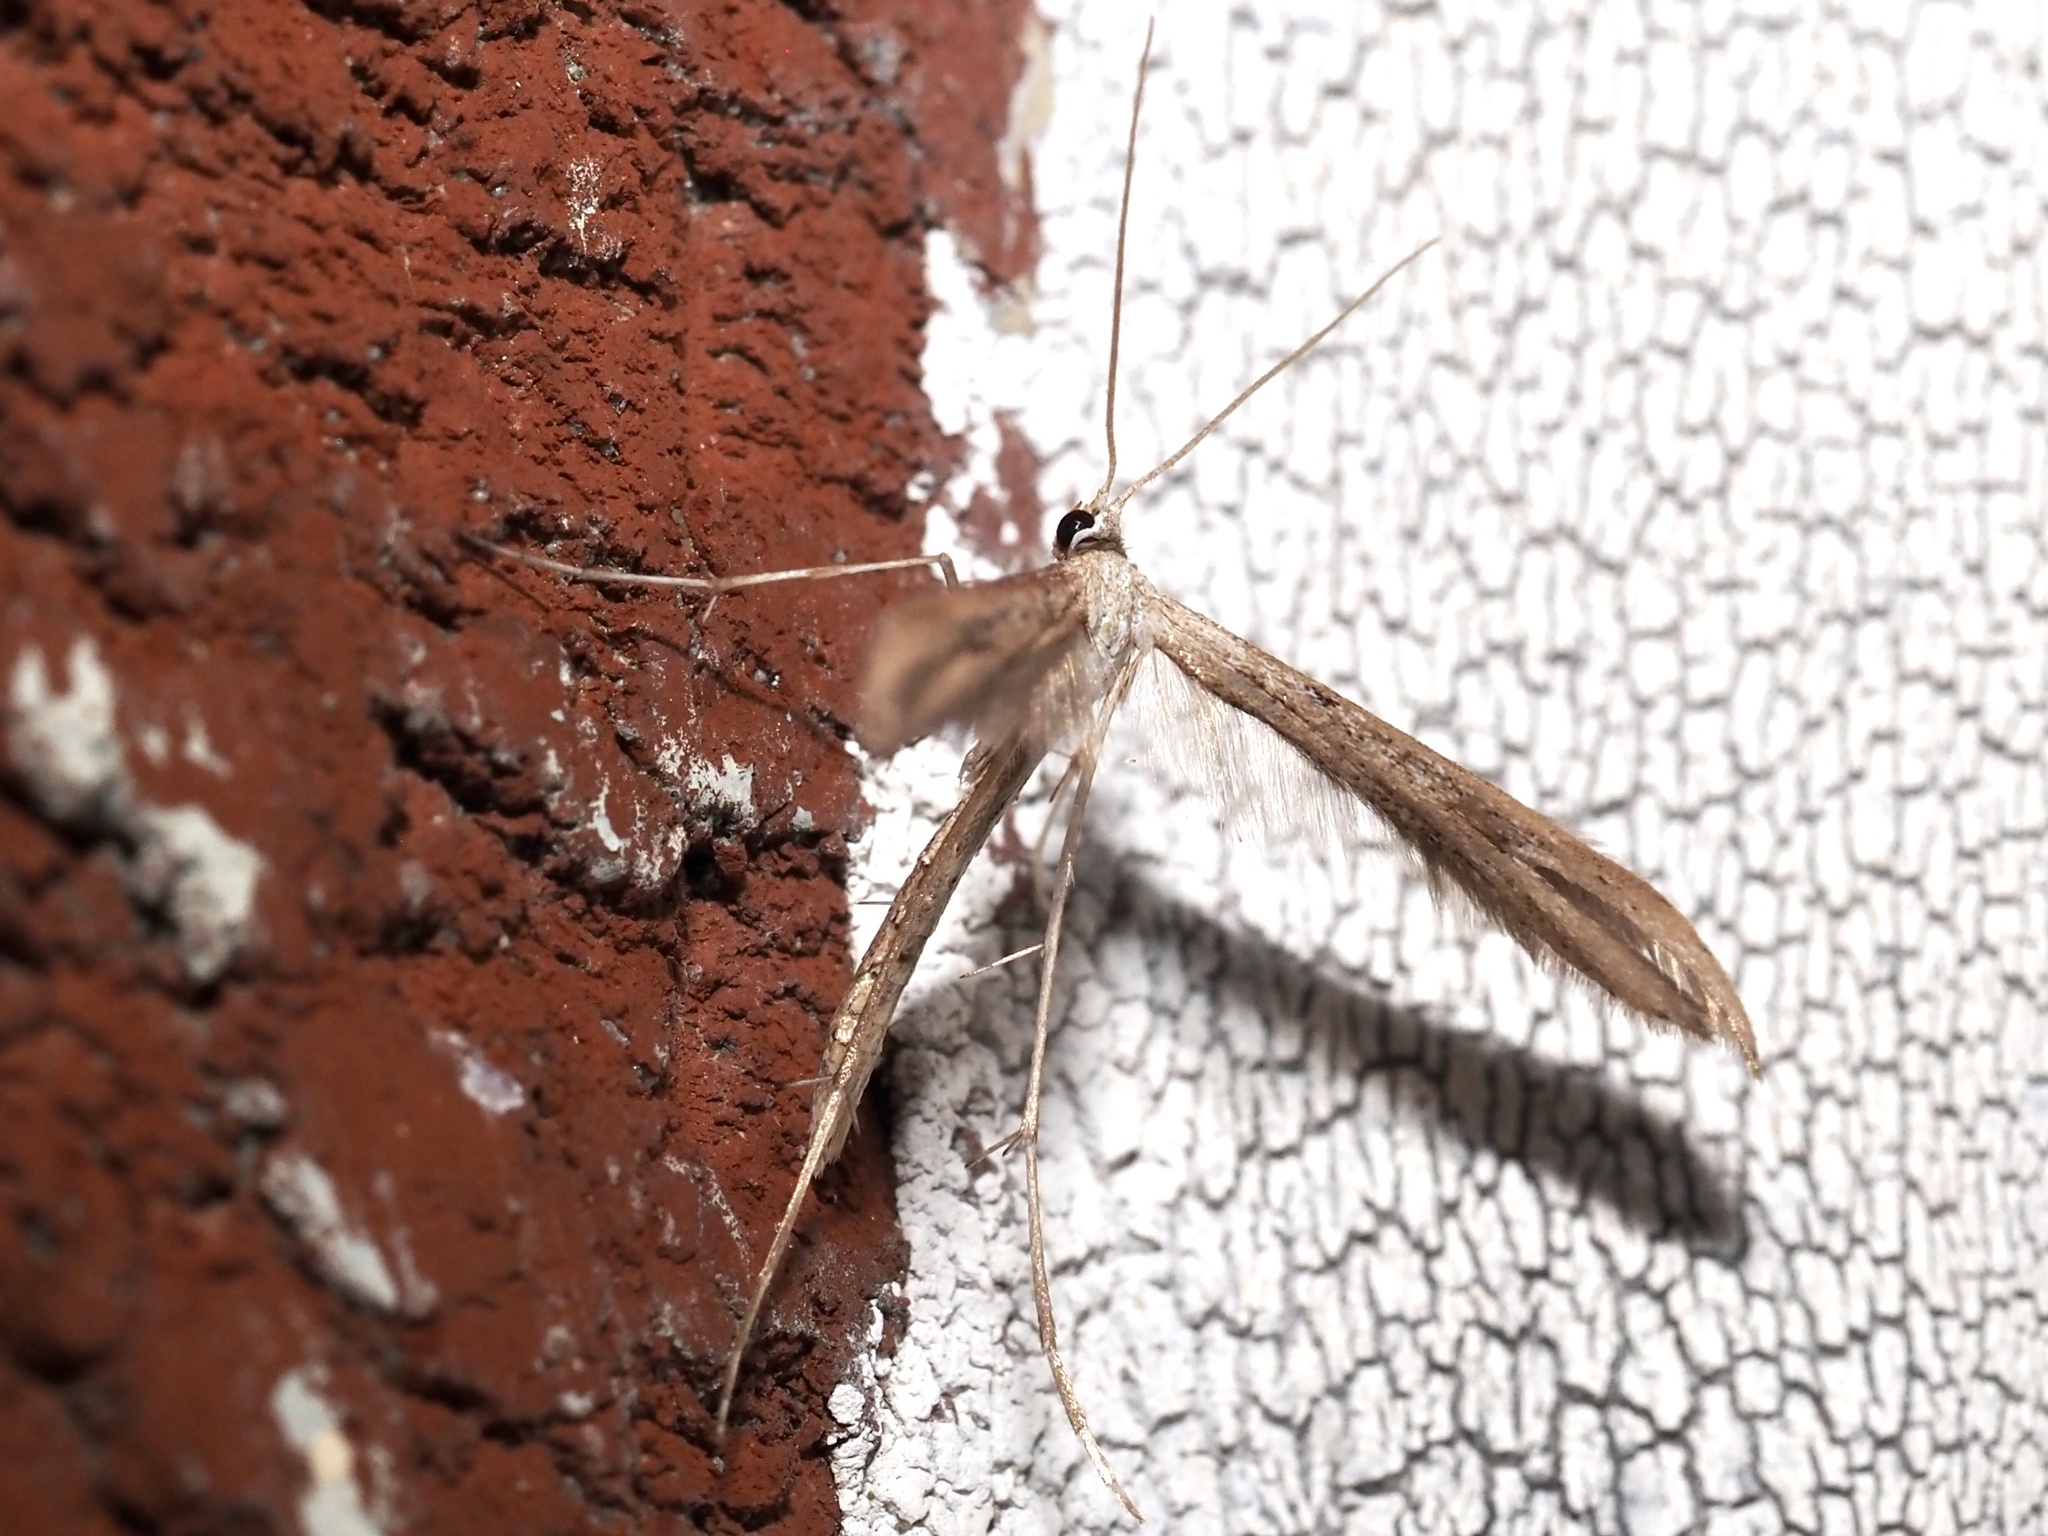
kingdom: Animalia
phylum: Arthropoda
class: Insecta
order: Lepidoptera
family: Pterophoridae
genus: Emmelina
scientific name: Emmelina monodactyla
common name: Common plume
